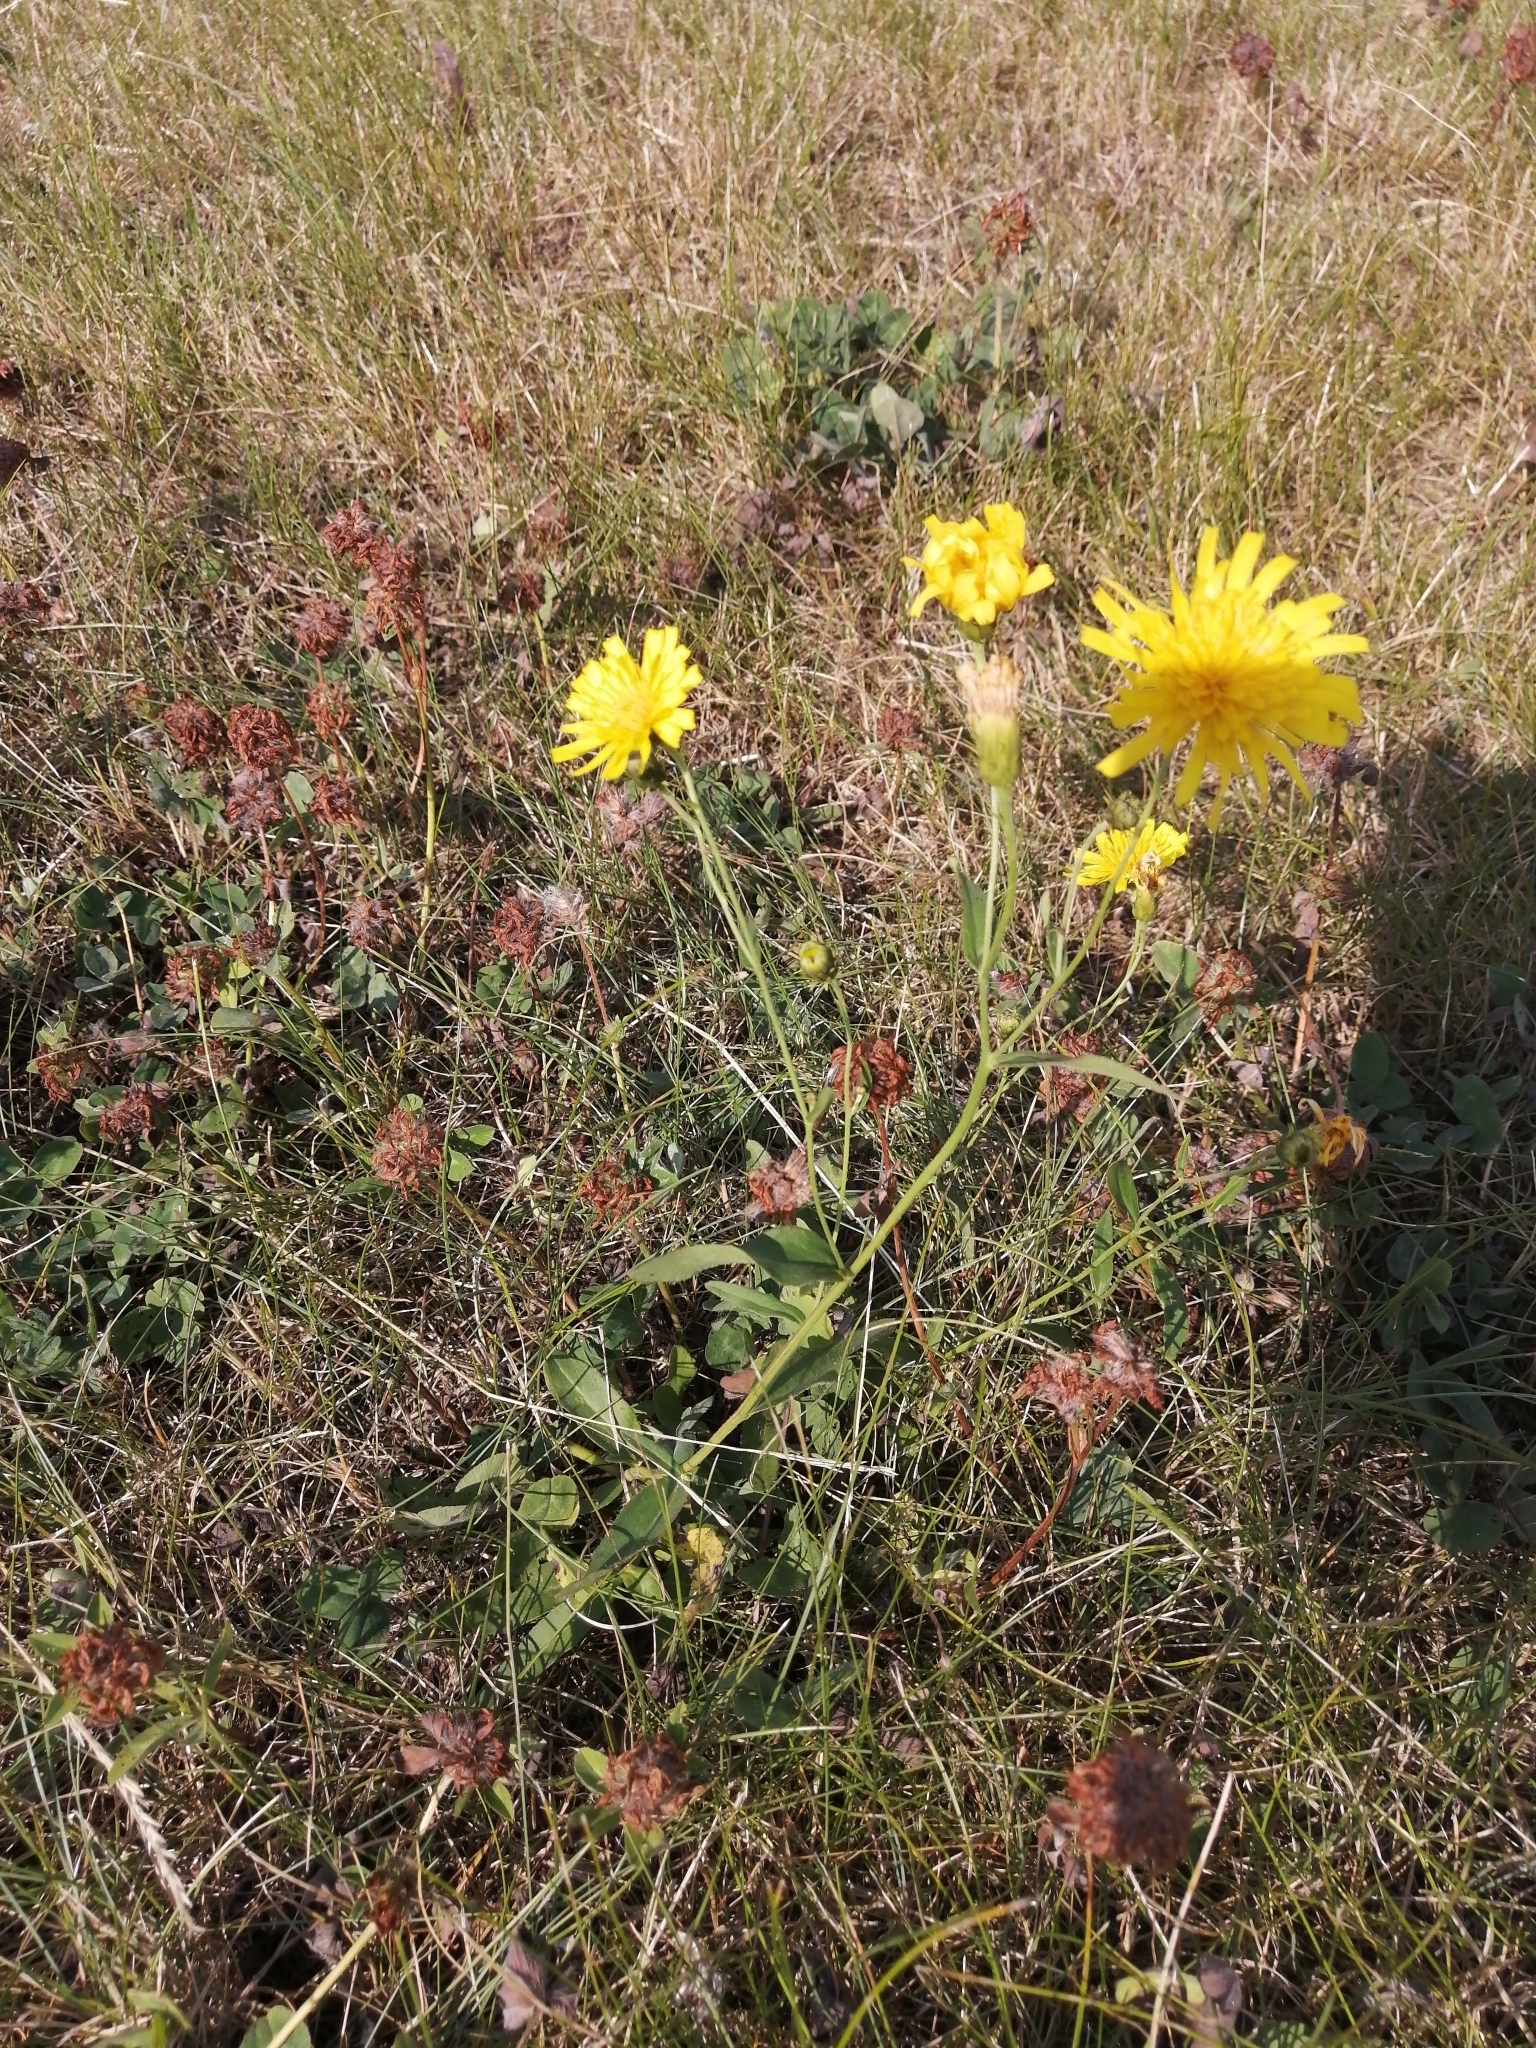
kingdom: Plantae
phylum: Tracheophyta
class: Magnoliopsida
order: Asterales
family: Asteraceae
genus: Hieracium
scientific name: Hieracium umbellatum
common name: Northern hawkweed
